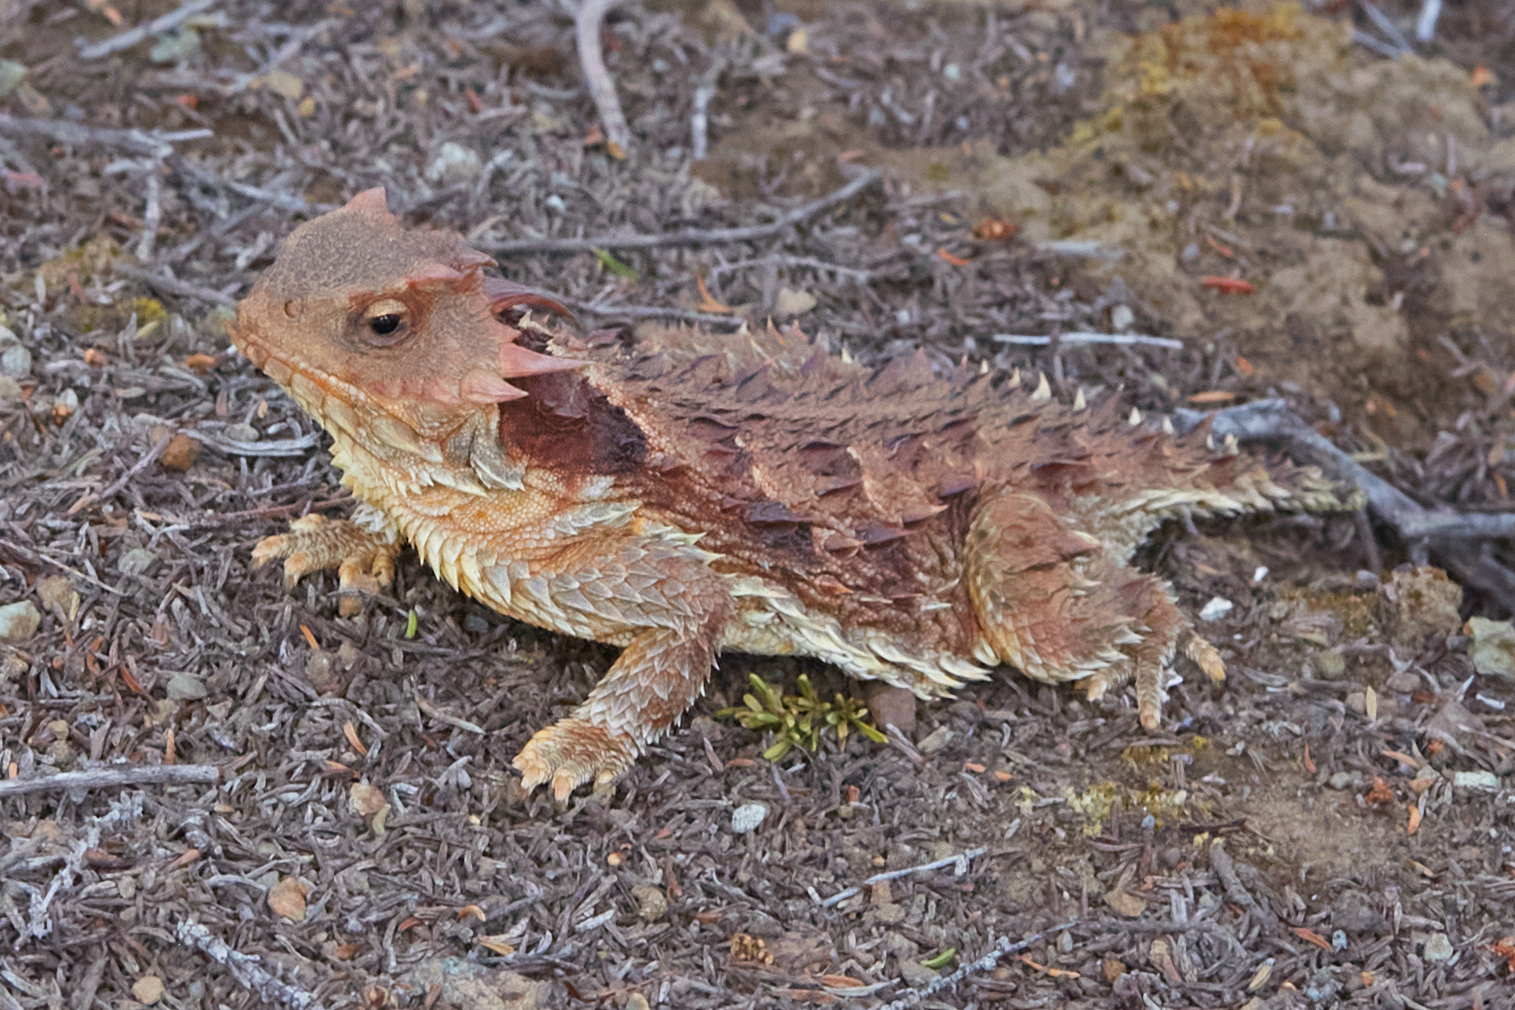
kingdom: Animalia
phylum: Chordata
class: Squamata
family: Phrynosomatidae
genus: Phrynosoma
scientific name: Phrynosoma blainvillii
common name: San diego horned lizard
